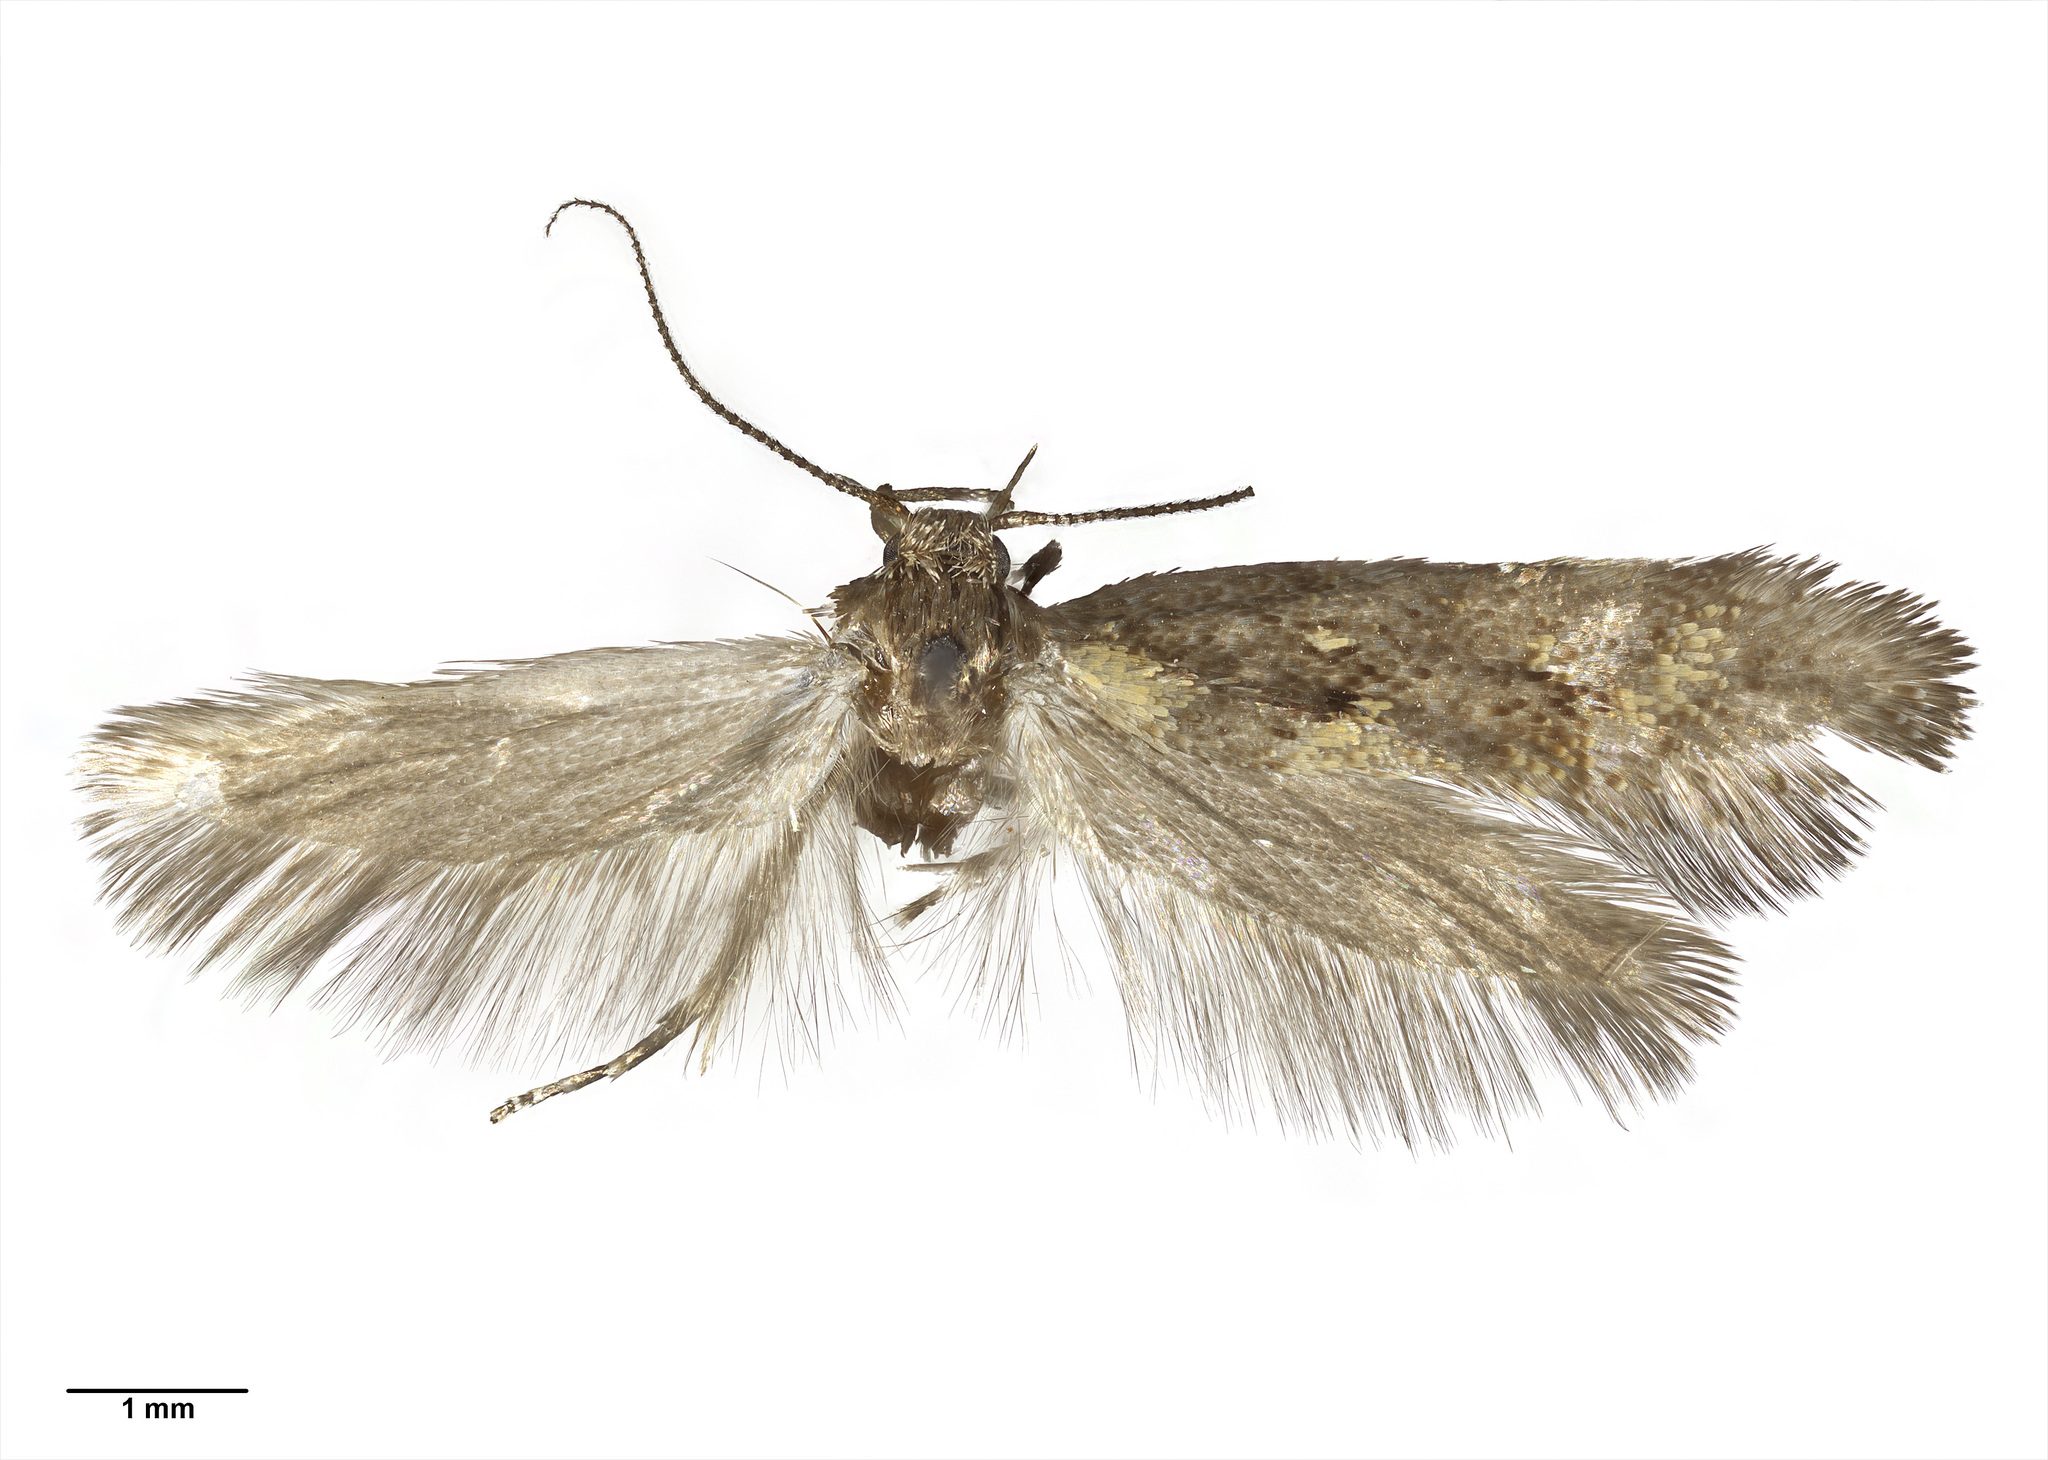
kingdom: Animalia
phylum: Arthropoda
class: Insecta
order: Lepidoptera
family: Oecophoridae
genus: Tingena
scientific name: Tingena aurata
